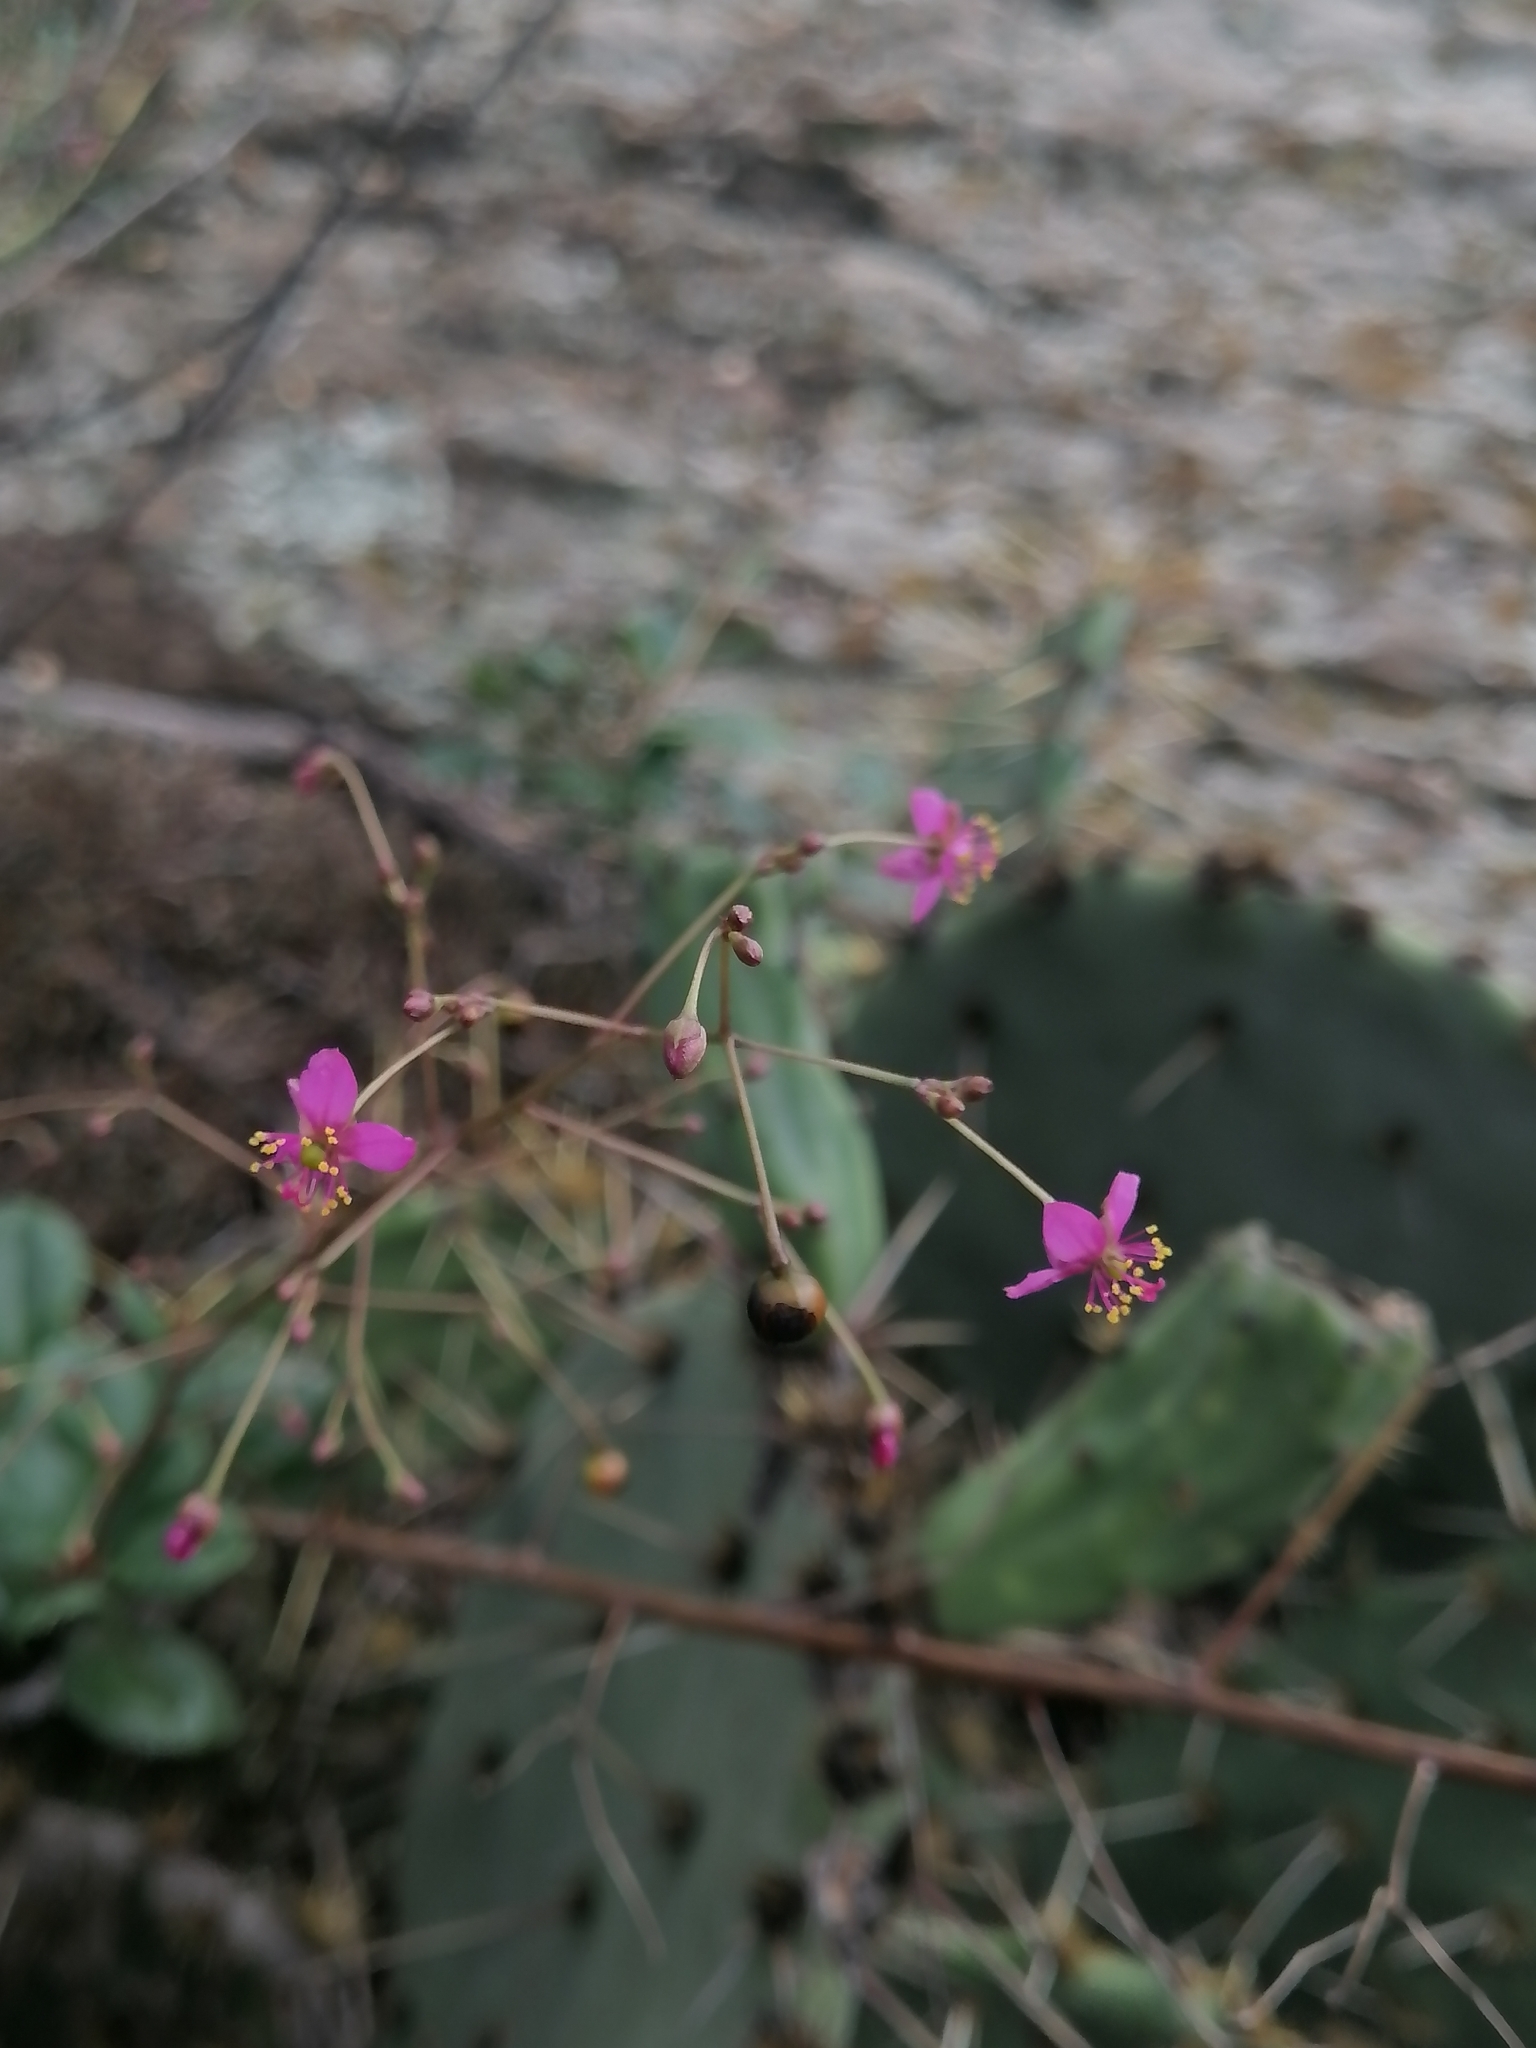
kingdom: Plantae
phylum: Tracheophyta
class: Magnoliopsida
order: Caryophyllales
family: Talinaceae
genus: Talinum
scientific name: Talinum paniculatum
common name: Jewels of opar
